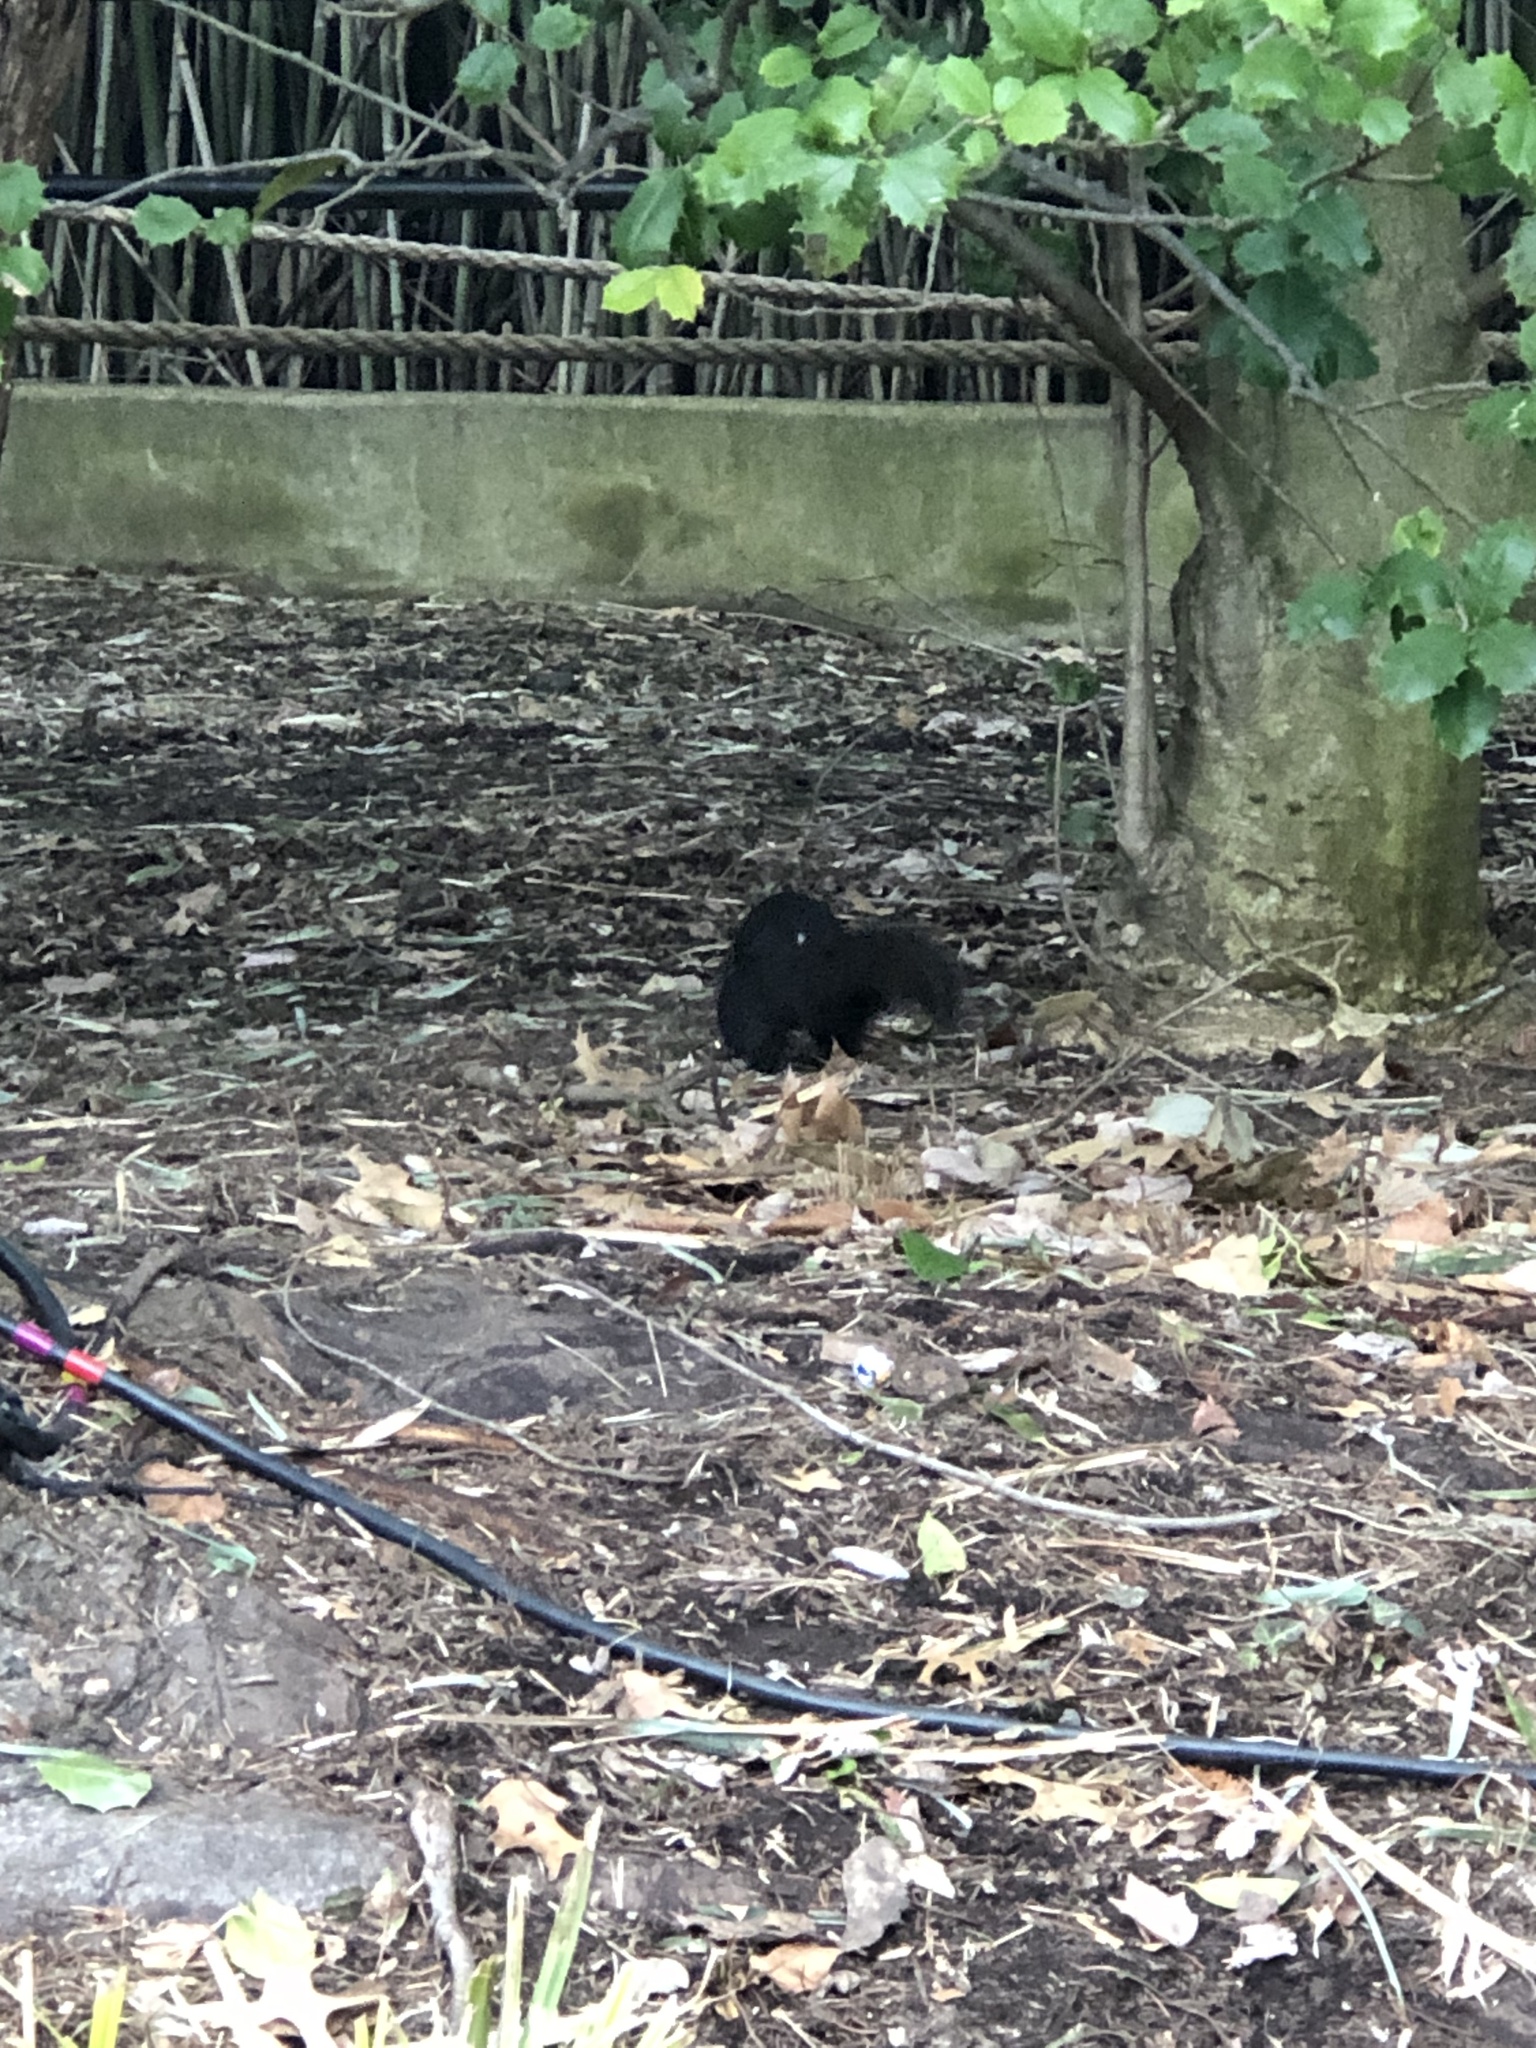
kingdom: Animalia
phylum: Chordata
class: Mammalia
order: Rodentia
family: Sciuridae
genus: Sciurus
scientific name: Sciurus carolinensis
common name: Eastern gray squirrel
